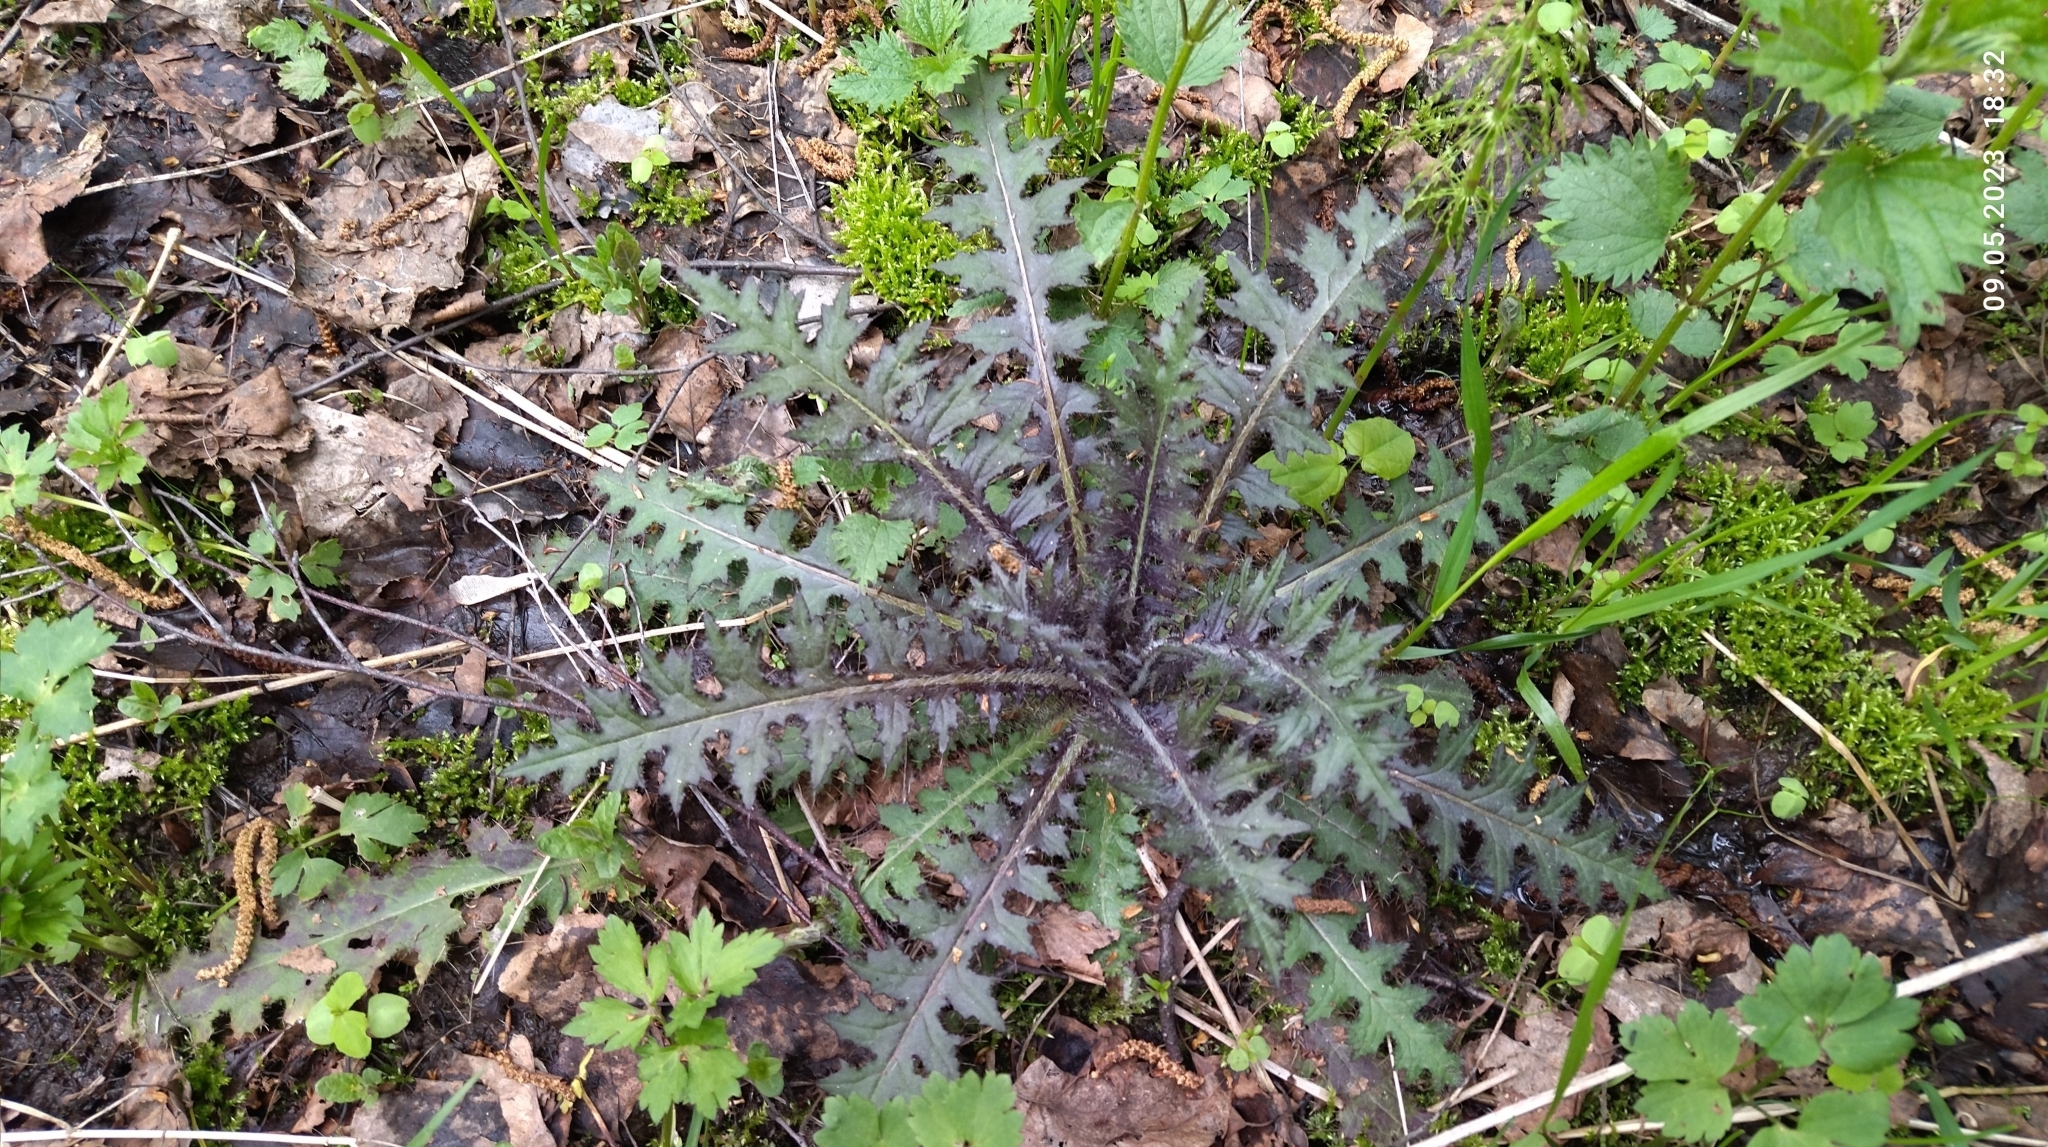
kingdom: Plantae
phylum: Tracheophyta
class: Magnoliopsida
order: Asterales
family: Asteraceae
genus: Cirsium
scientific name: Cirsium palustre
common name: Marsh thistle
